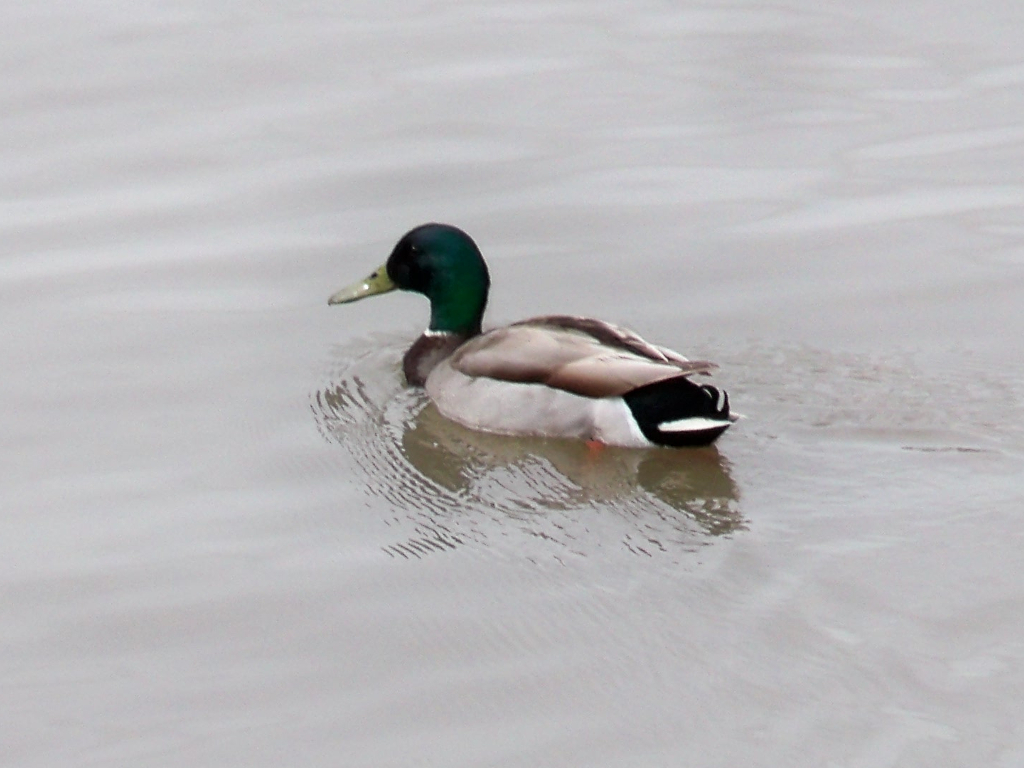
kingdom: Animalia
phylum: Chordata
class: Aves
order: Anseriformes
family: Anatidae
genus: Anas
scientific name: Anas platyrhynchos
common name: Mallard
